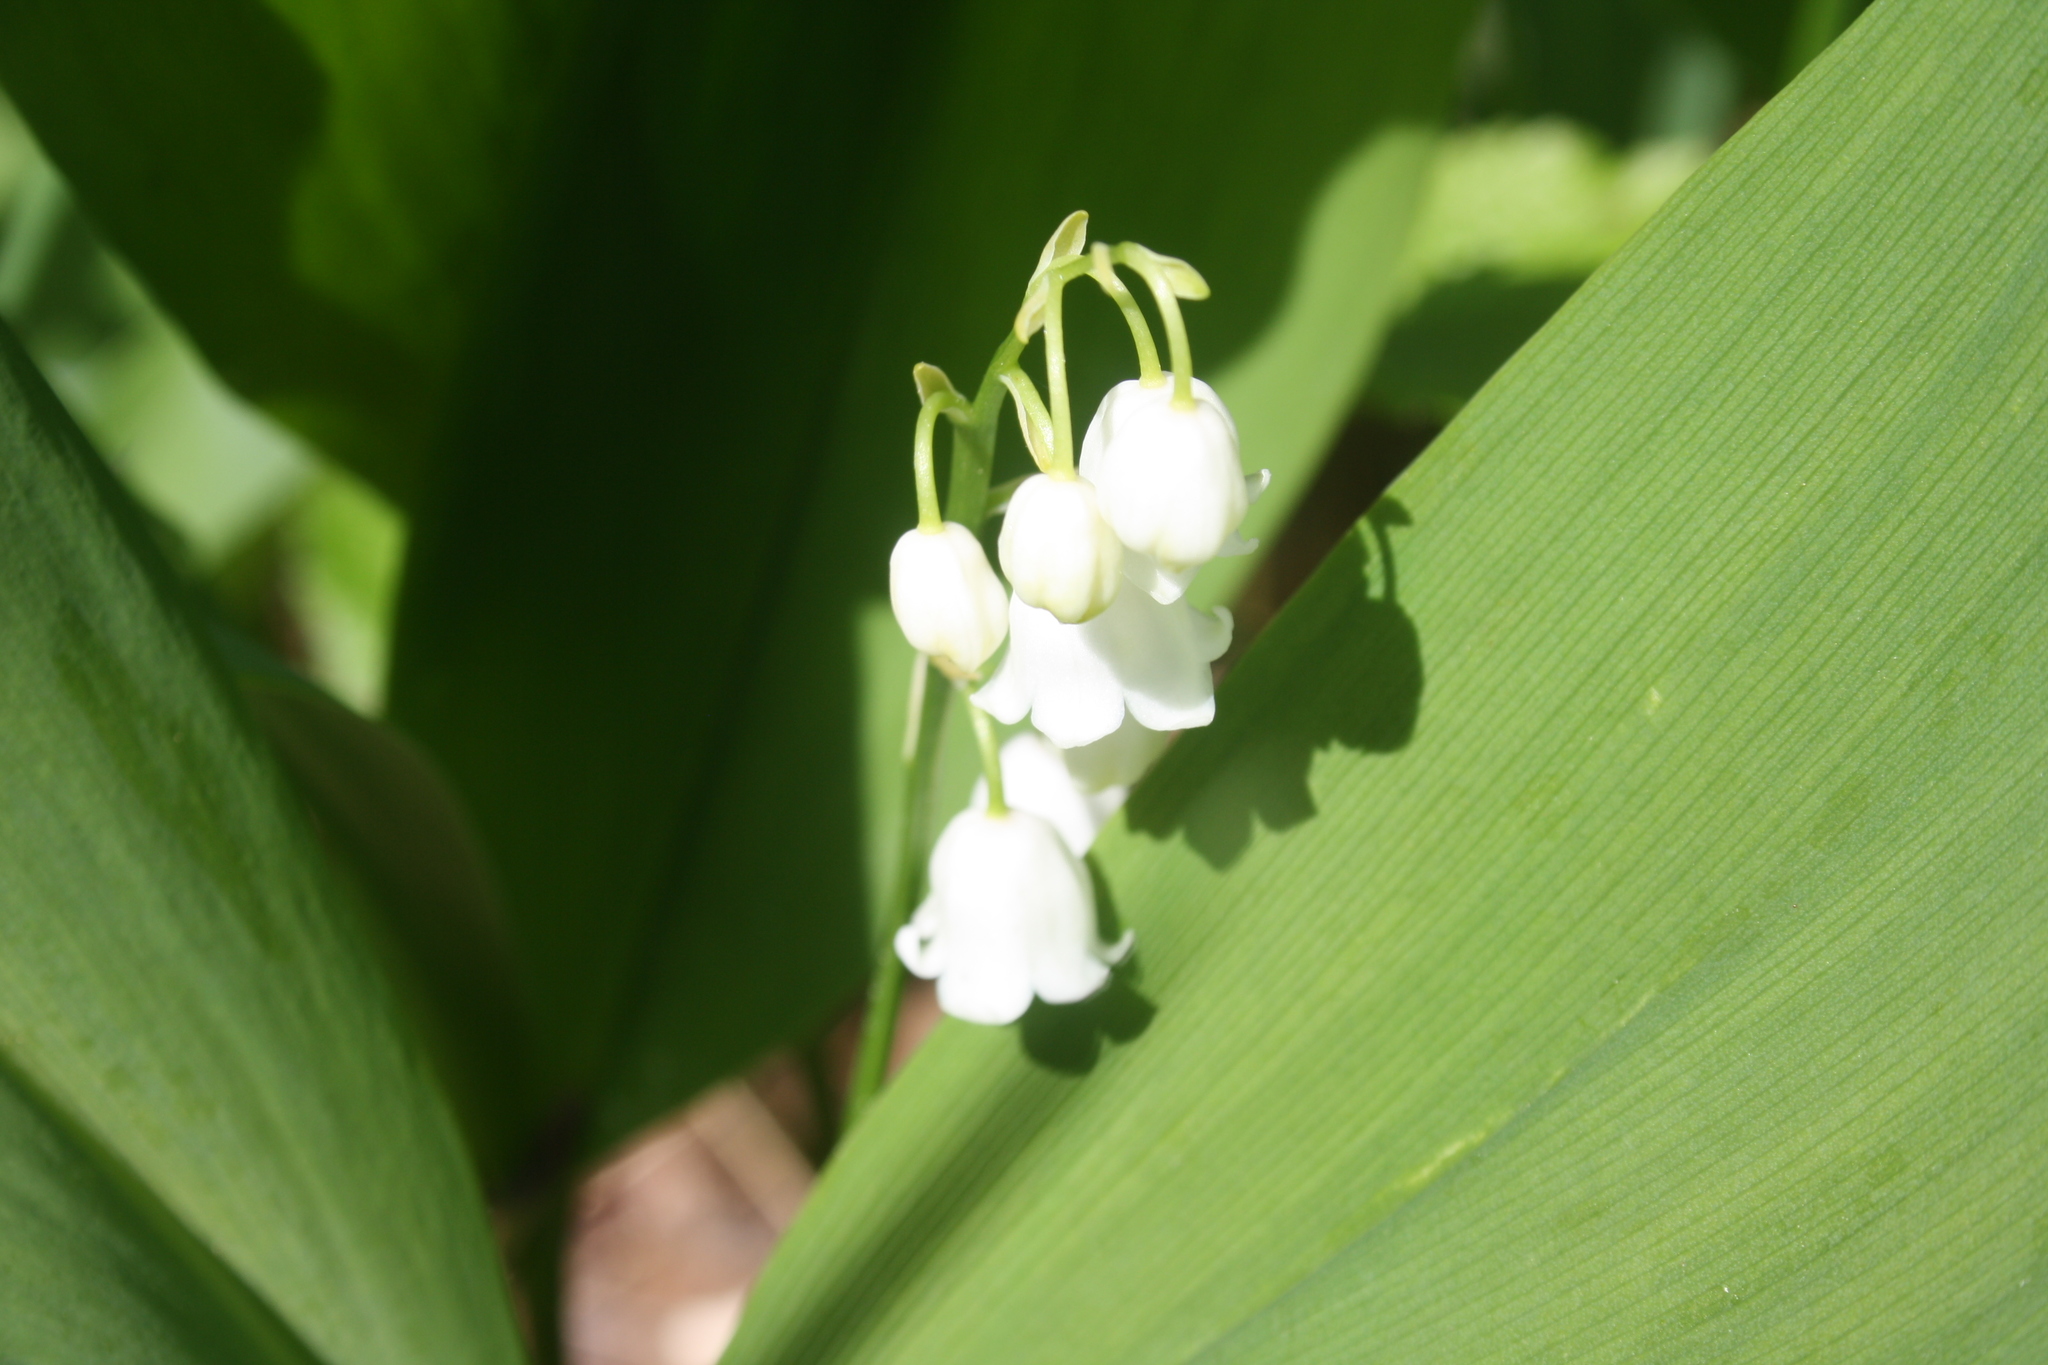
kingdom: Plantae
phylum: Tracheophyta
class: Liliopsida
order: Asparagales
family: Asparagaceae
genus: Convallaria
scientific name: Convallaria majalis
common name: Lily-of-the-valley
